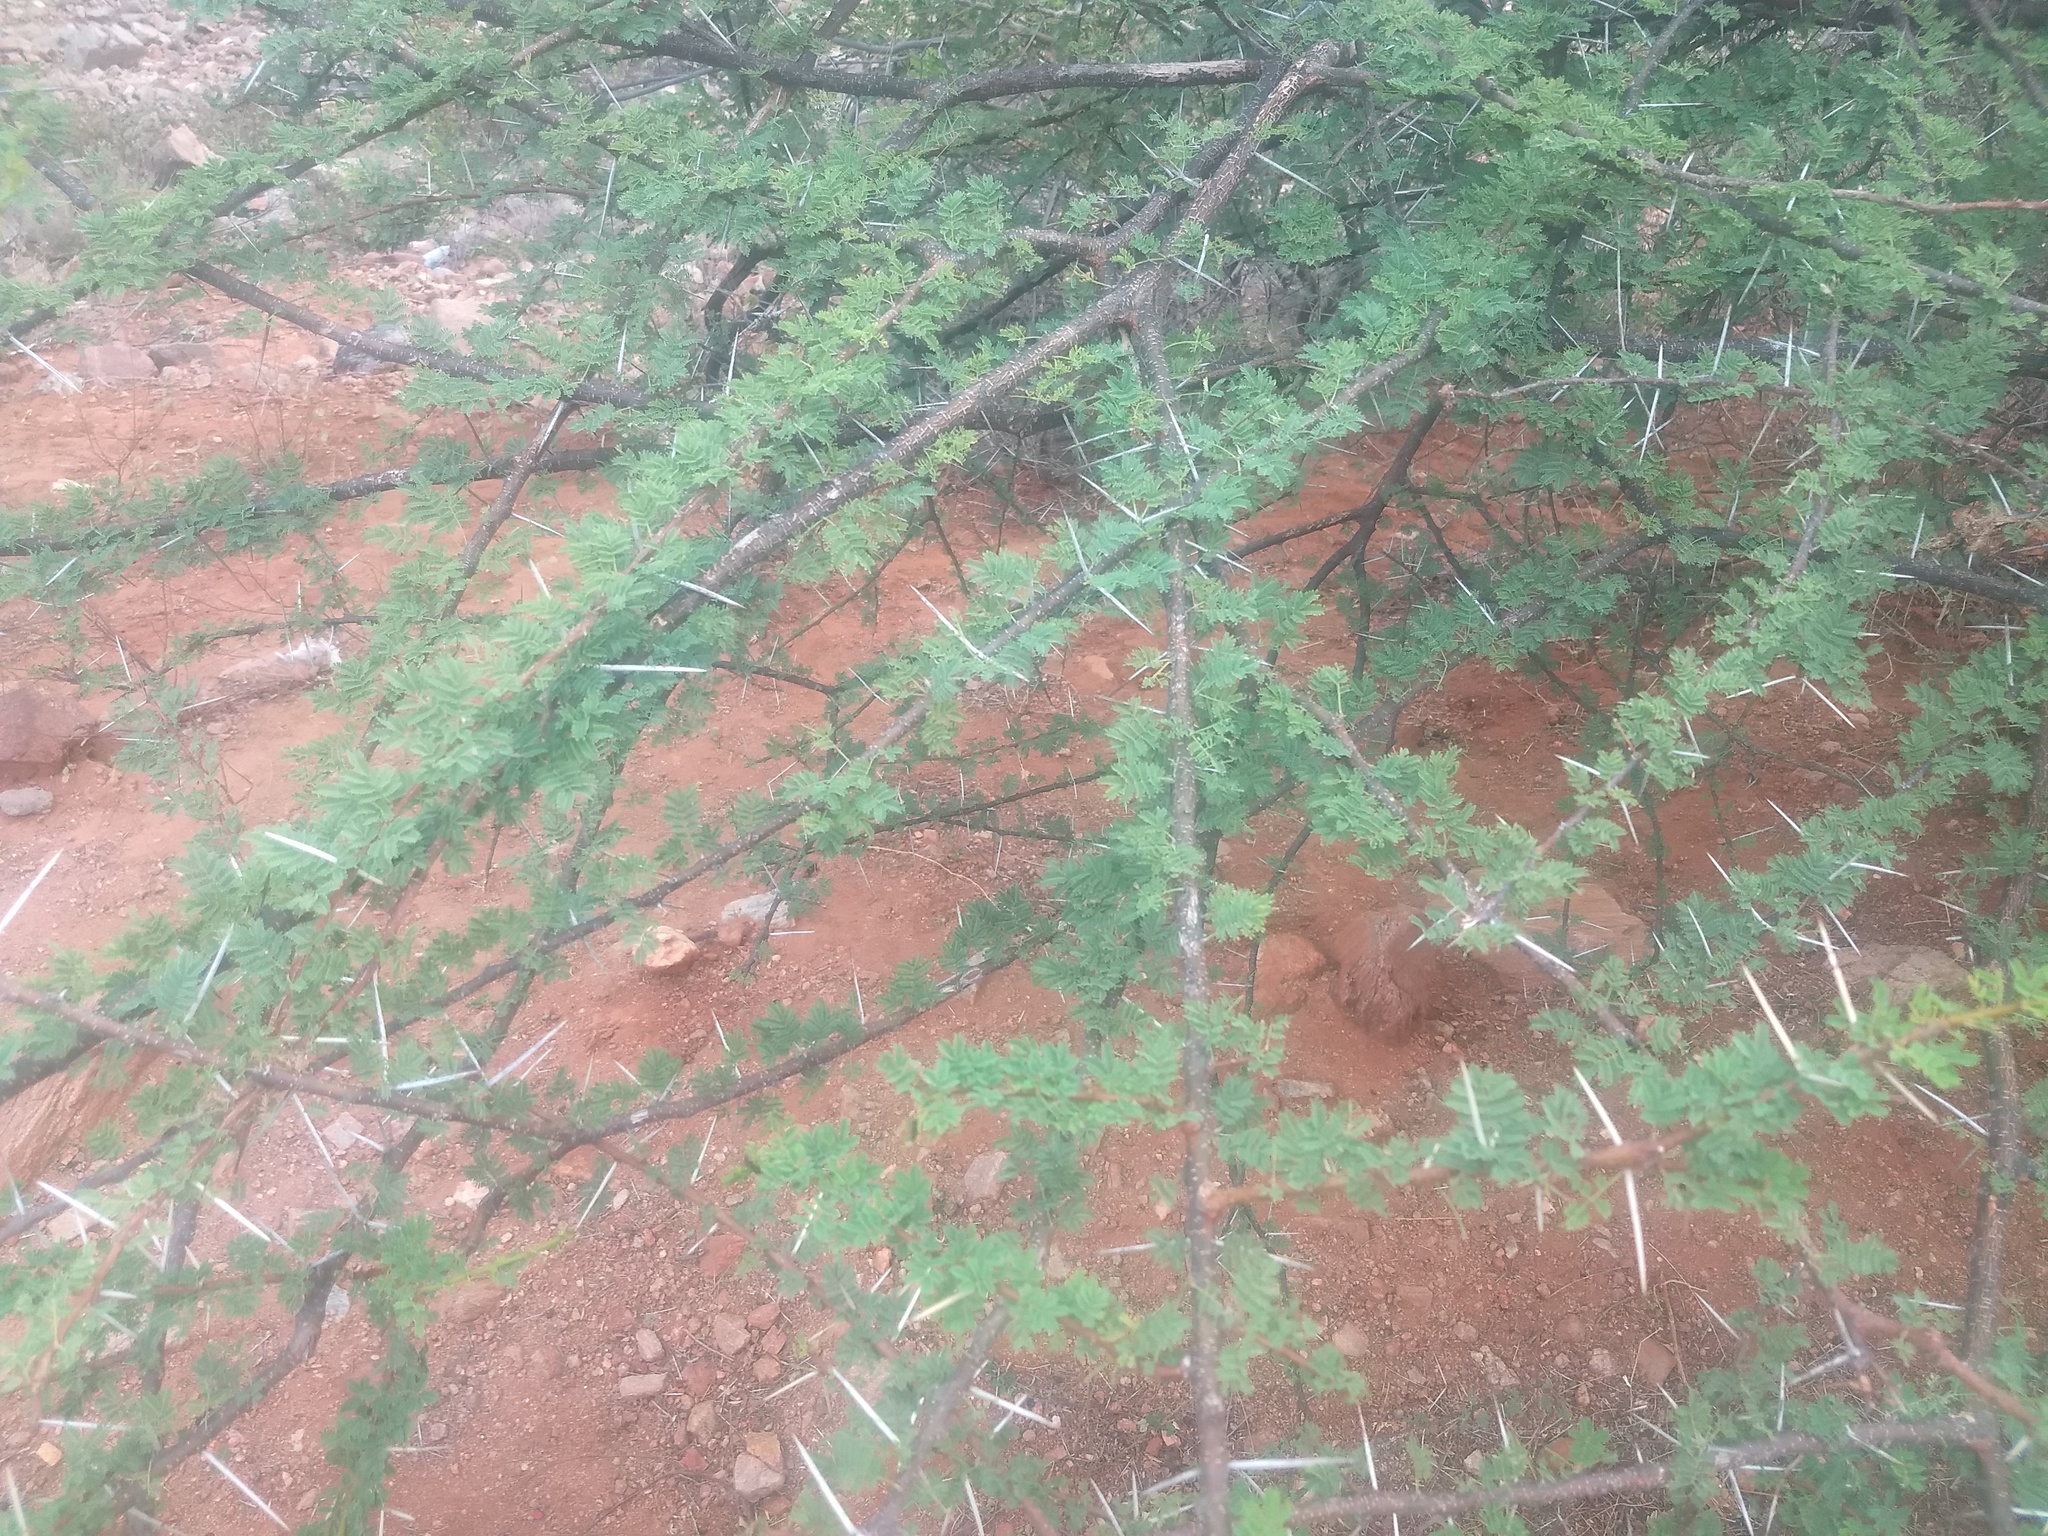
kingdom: Plantae
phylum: Tracheophyta
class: Magnoliopsida
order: Fabales
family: Fabaceae
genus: Vachellia
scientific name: Vachellia planifrons
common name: Umbrella-thorn
